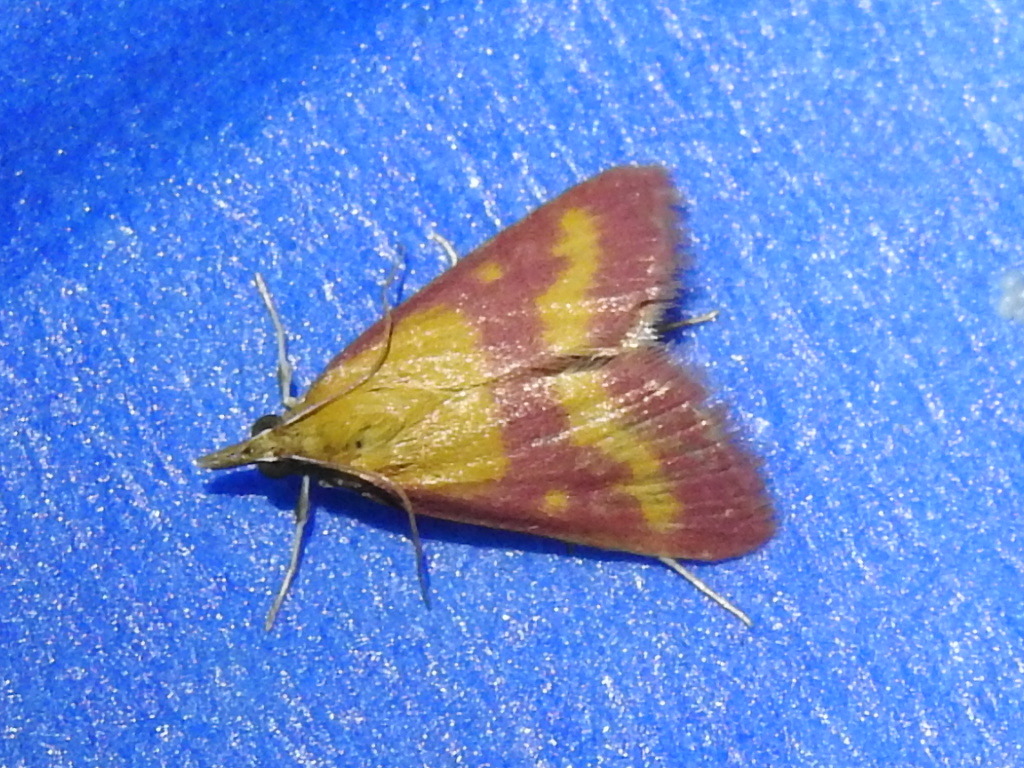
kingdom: Animalia
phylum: Arthropoda
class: Insecta
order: Lepidoptera
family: Crambidae
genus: Pyrausta
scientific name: Pyrausta laticlavia
